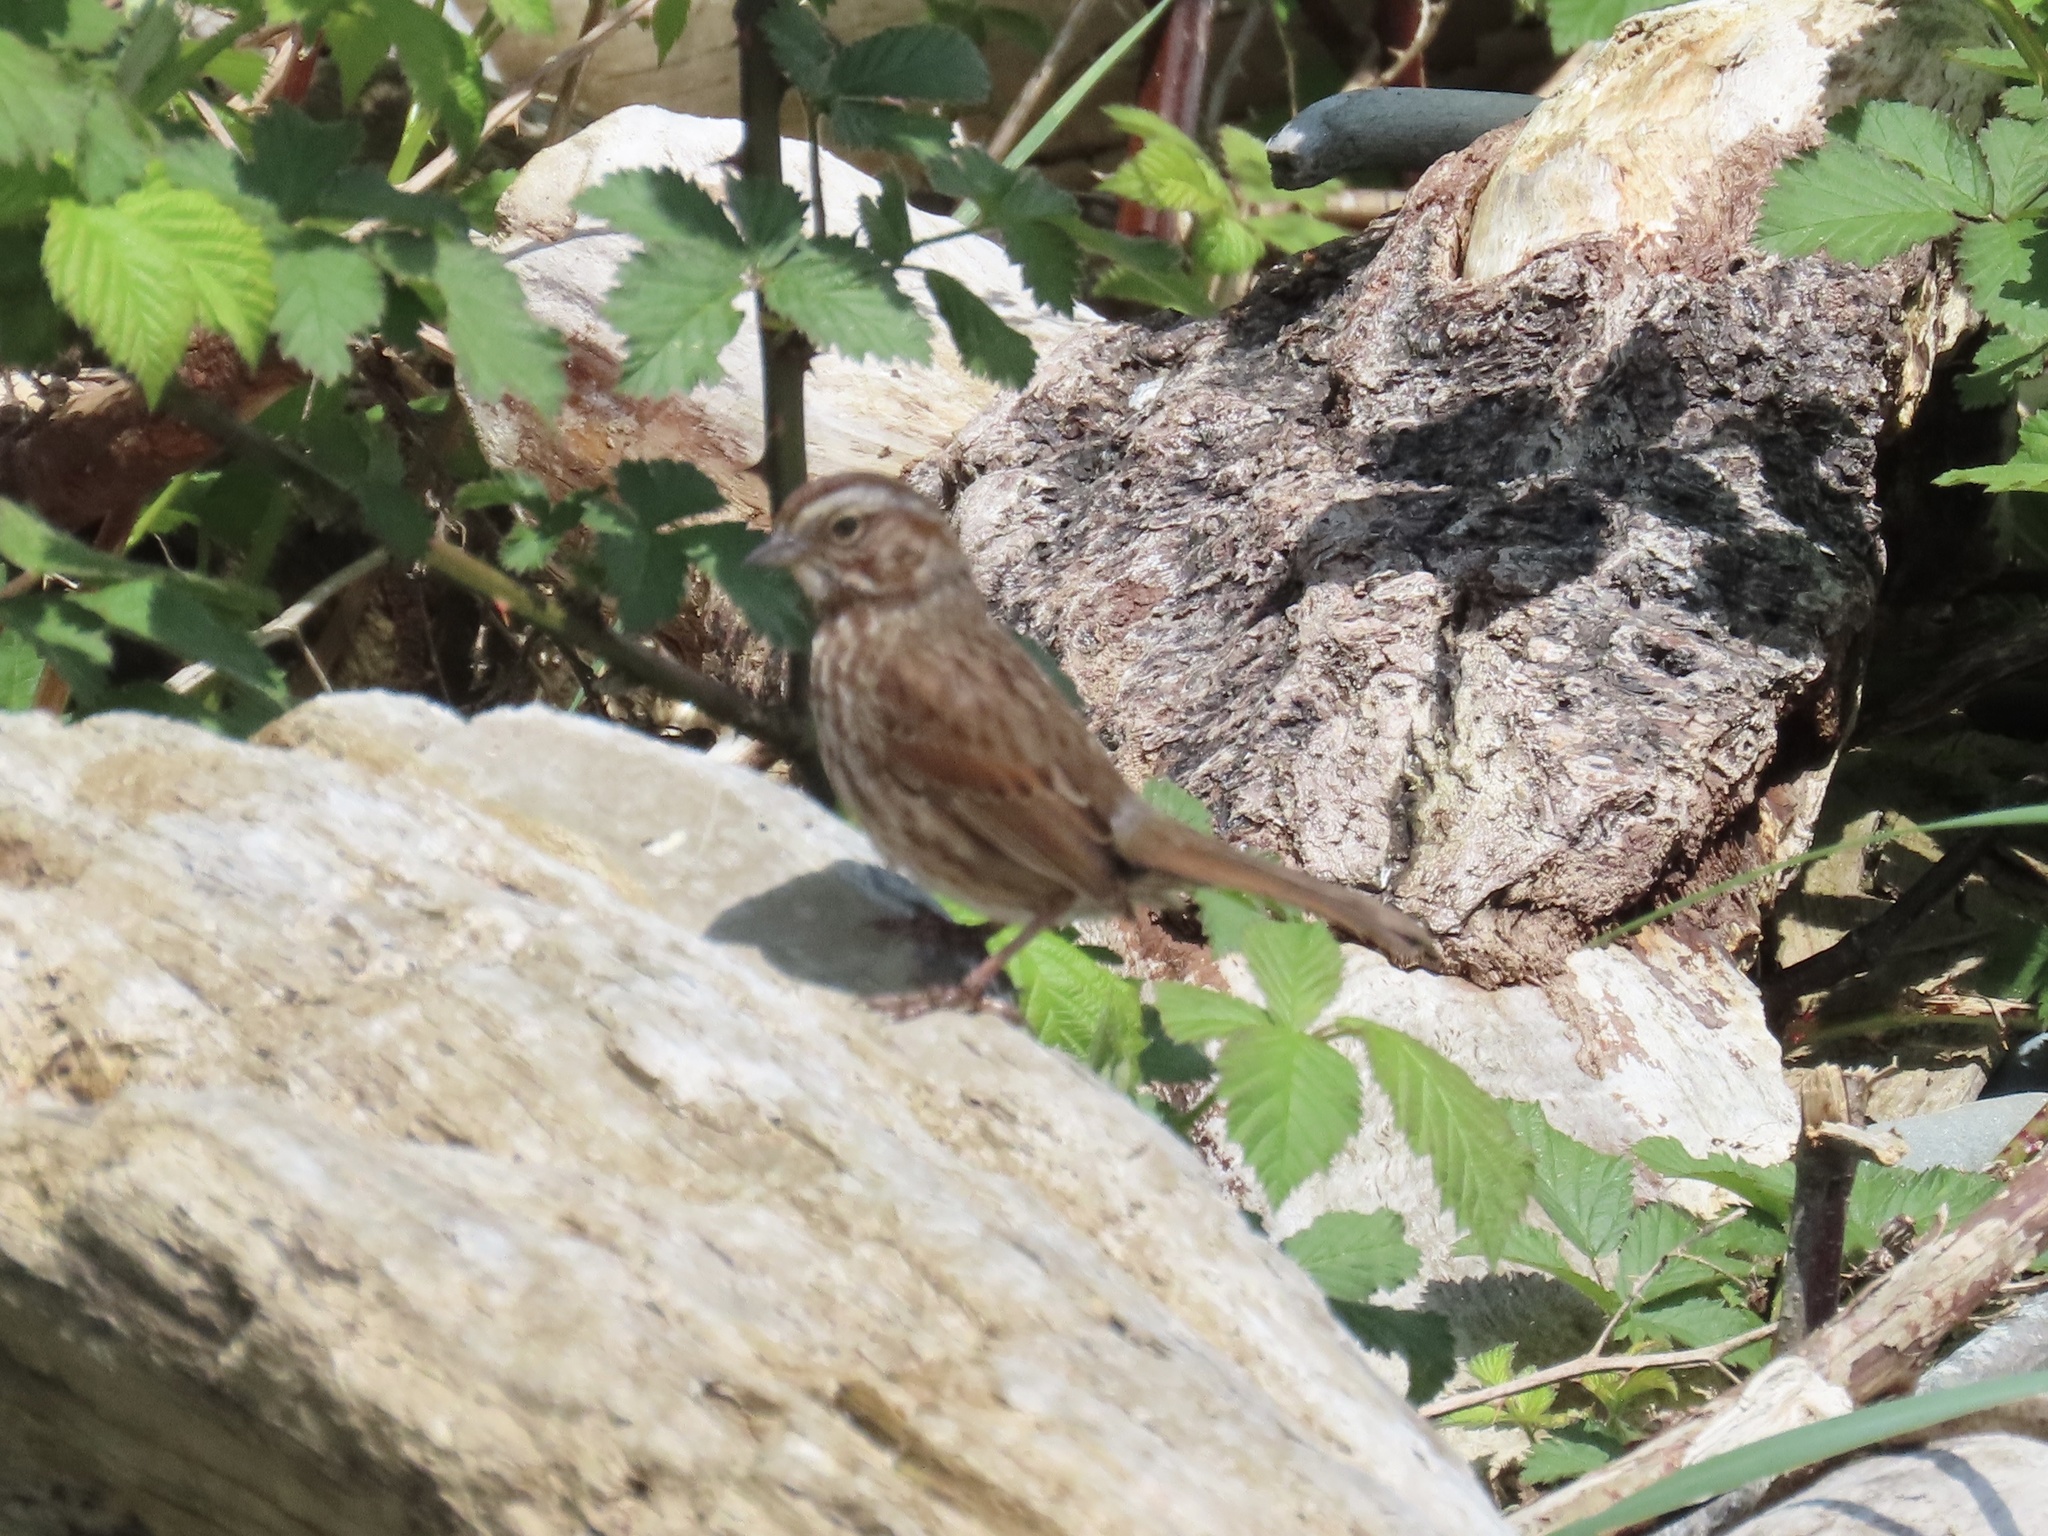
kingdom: Animalia
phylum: Chordata
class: Aves
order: Passeriformes
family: Passerellidae
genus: Melospiza
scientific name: Melospiza melodia
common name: Song sparrow
